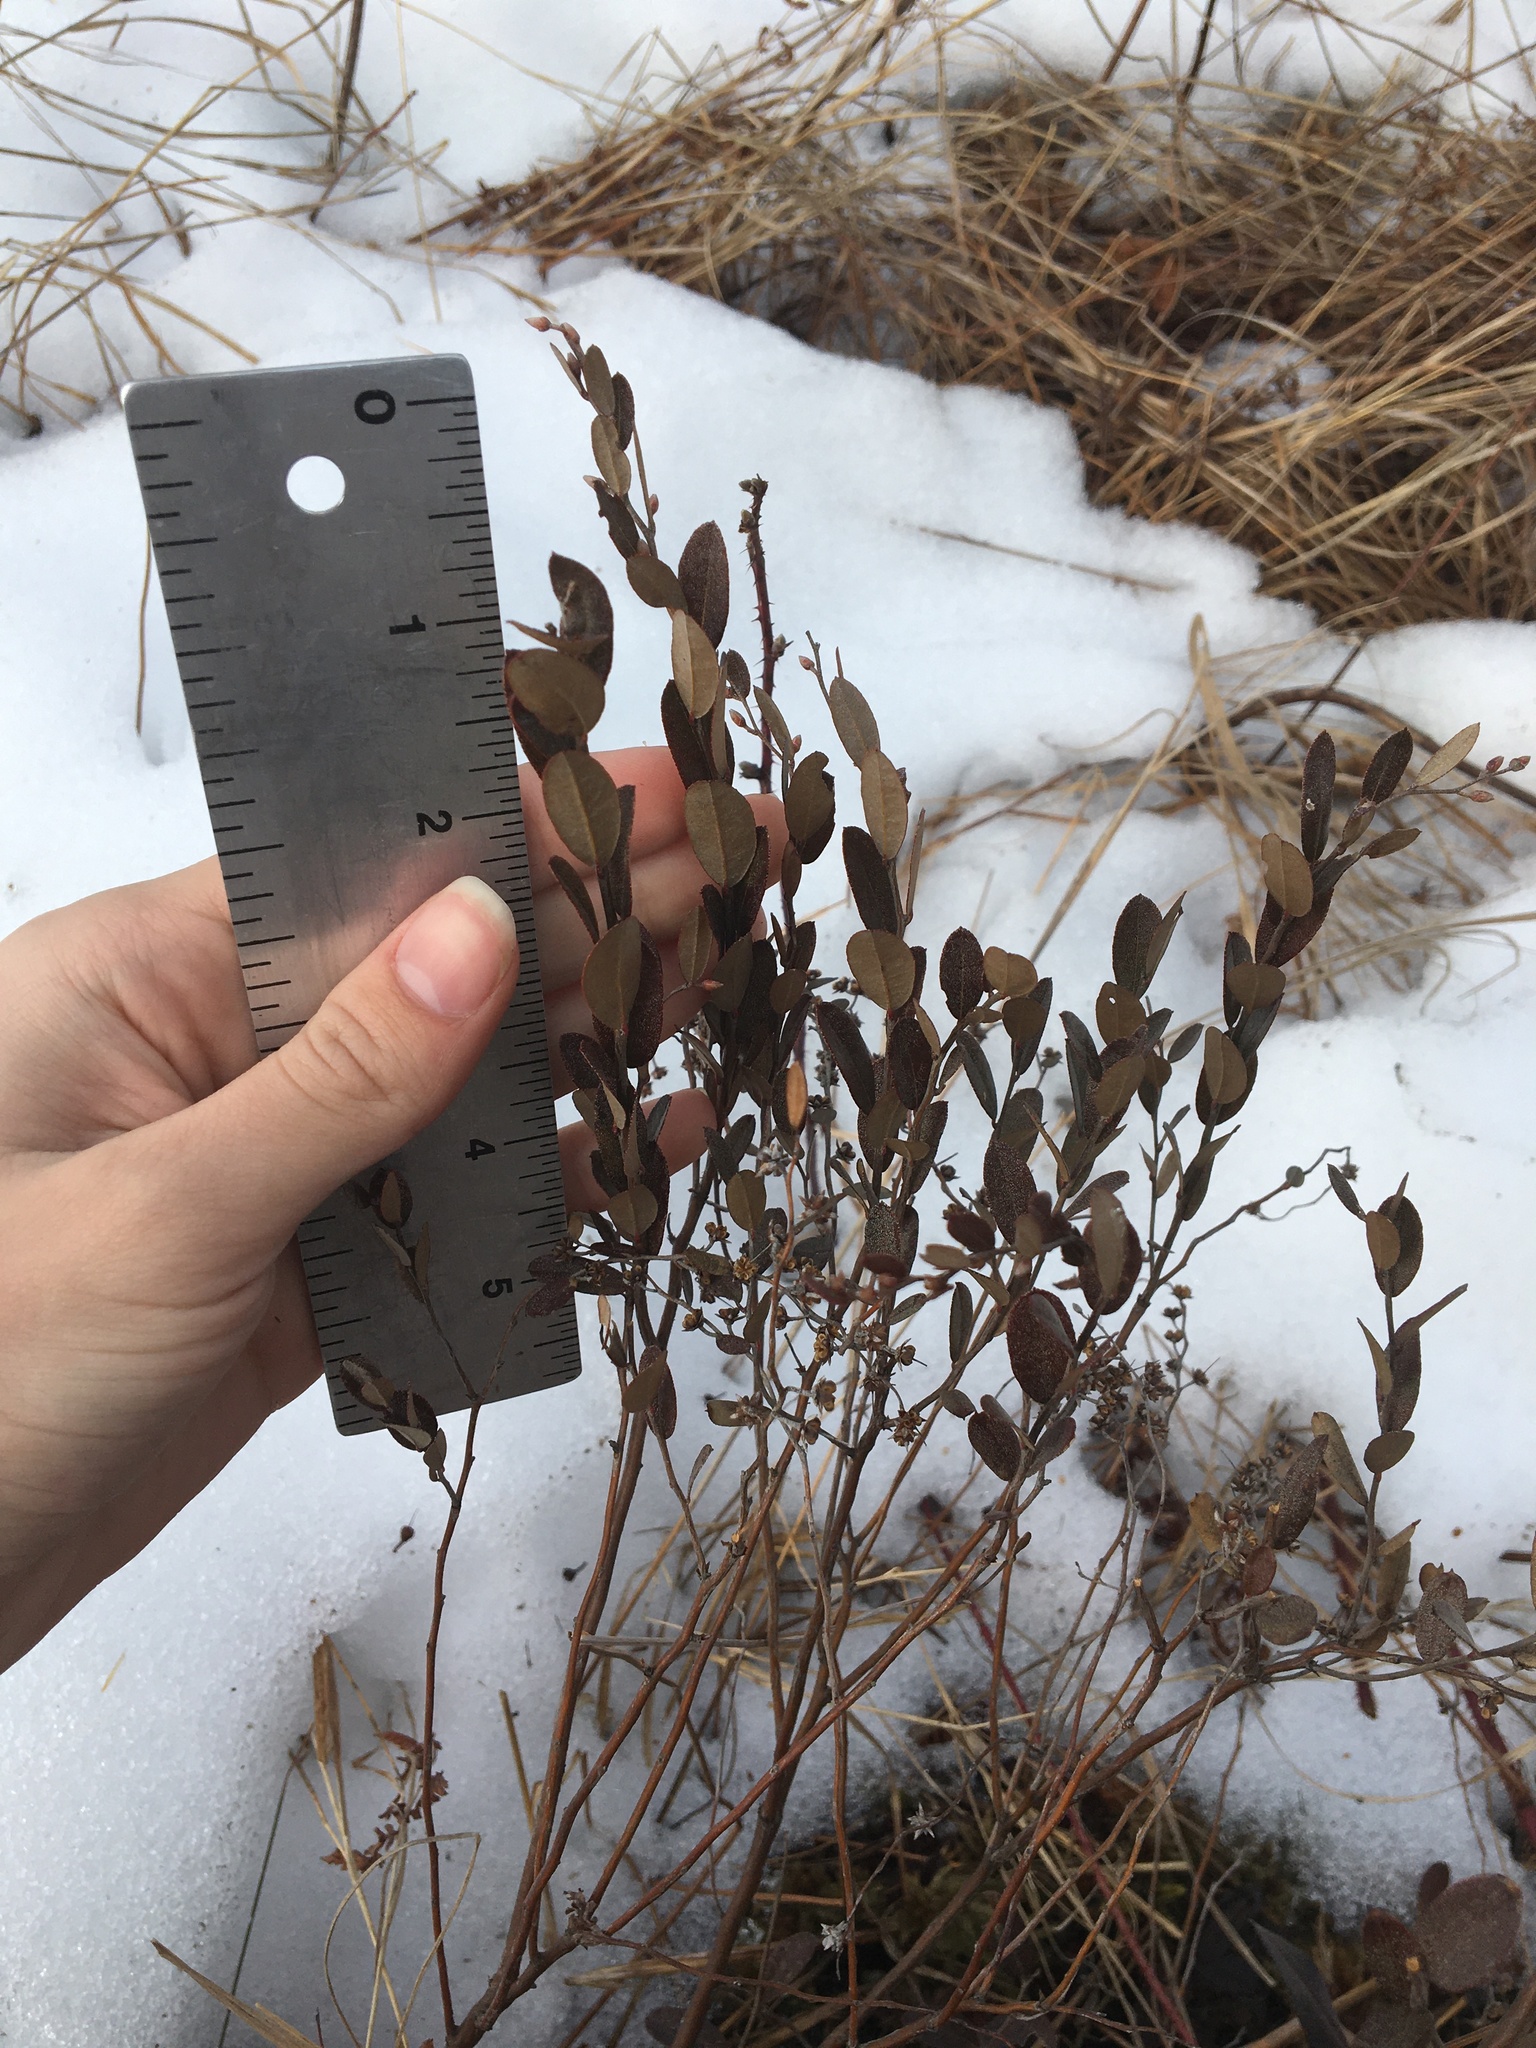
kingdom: Plantae
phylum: Tracheophyta
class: Magnoliopsida
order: Ericales
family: Ericaceae
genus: Chamaedaphne
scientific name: Chamaedaphne calyculata
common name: Leatherleaf
